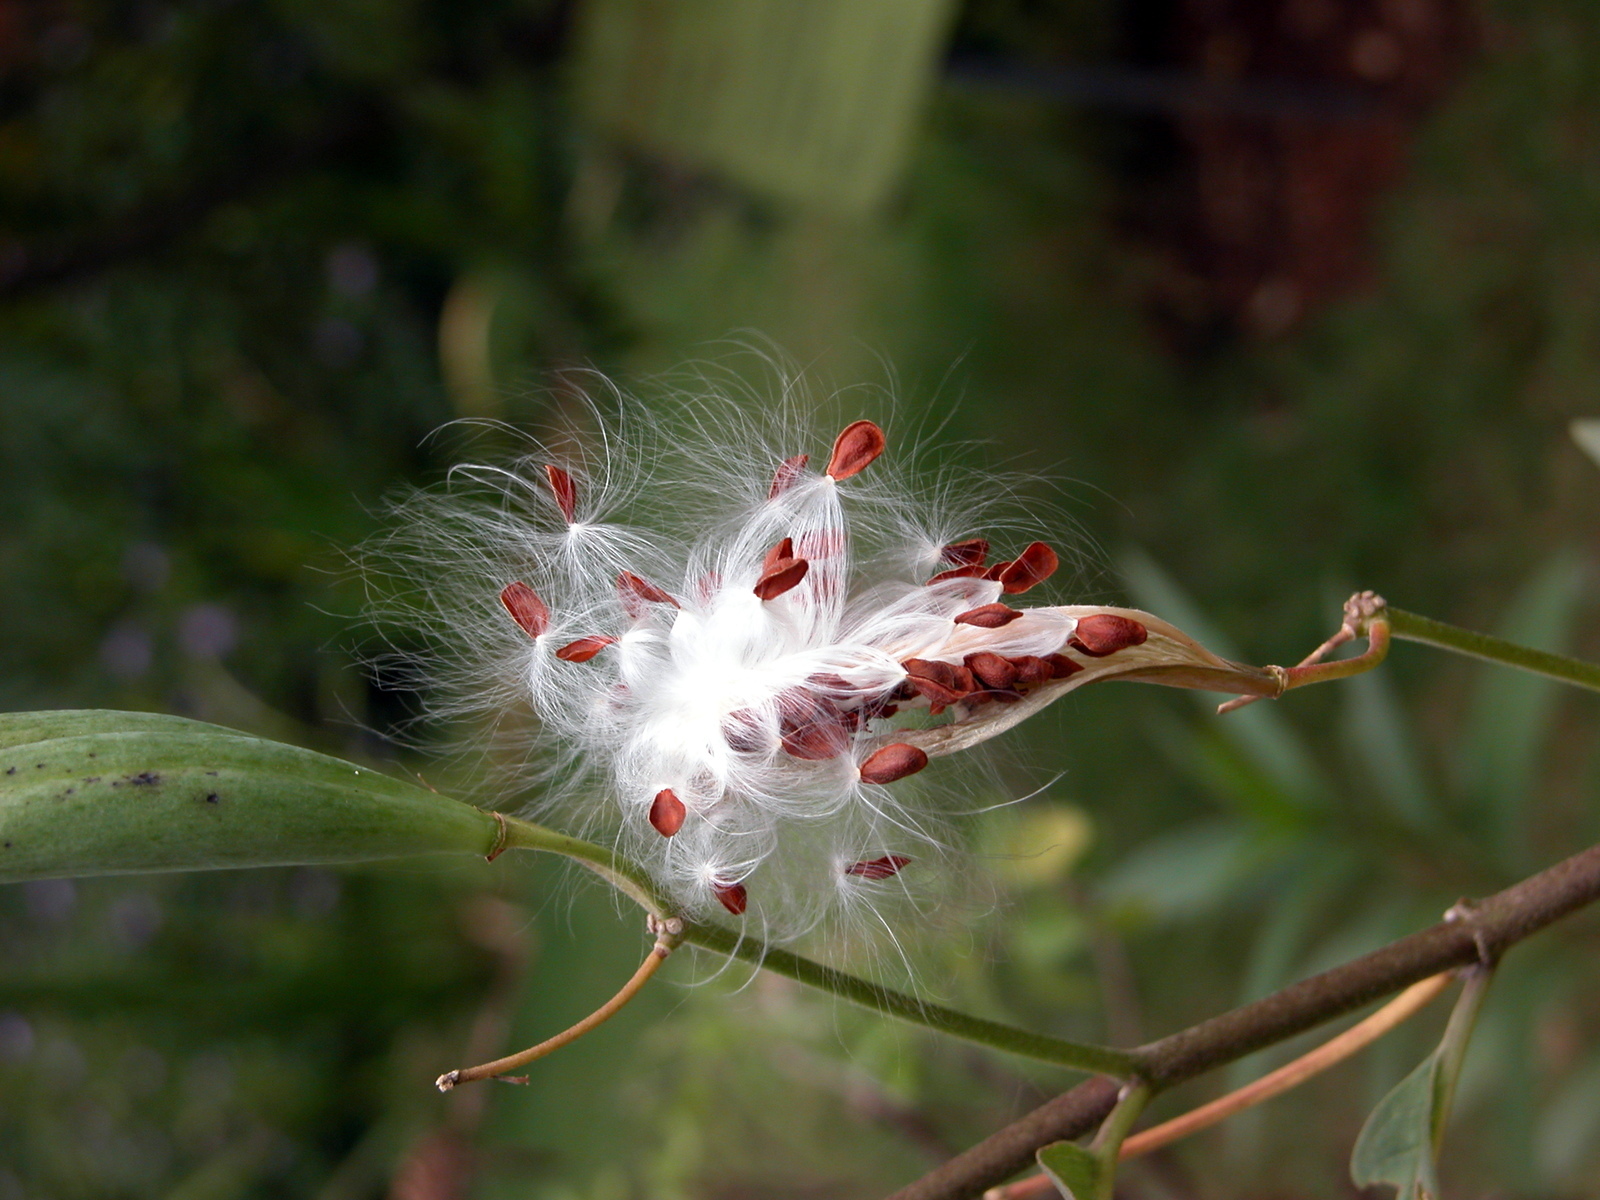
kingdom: Plantae
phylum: Tracheophyta
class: Magnoliopsida
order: Gentianales
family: Apocynaceae
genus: Asclepias
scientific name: Asclepias curassavica
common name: Bloodflower
